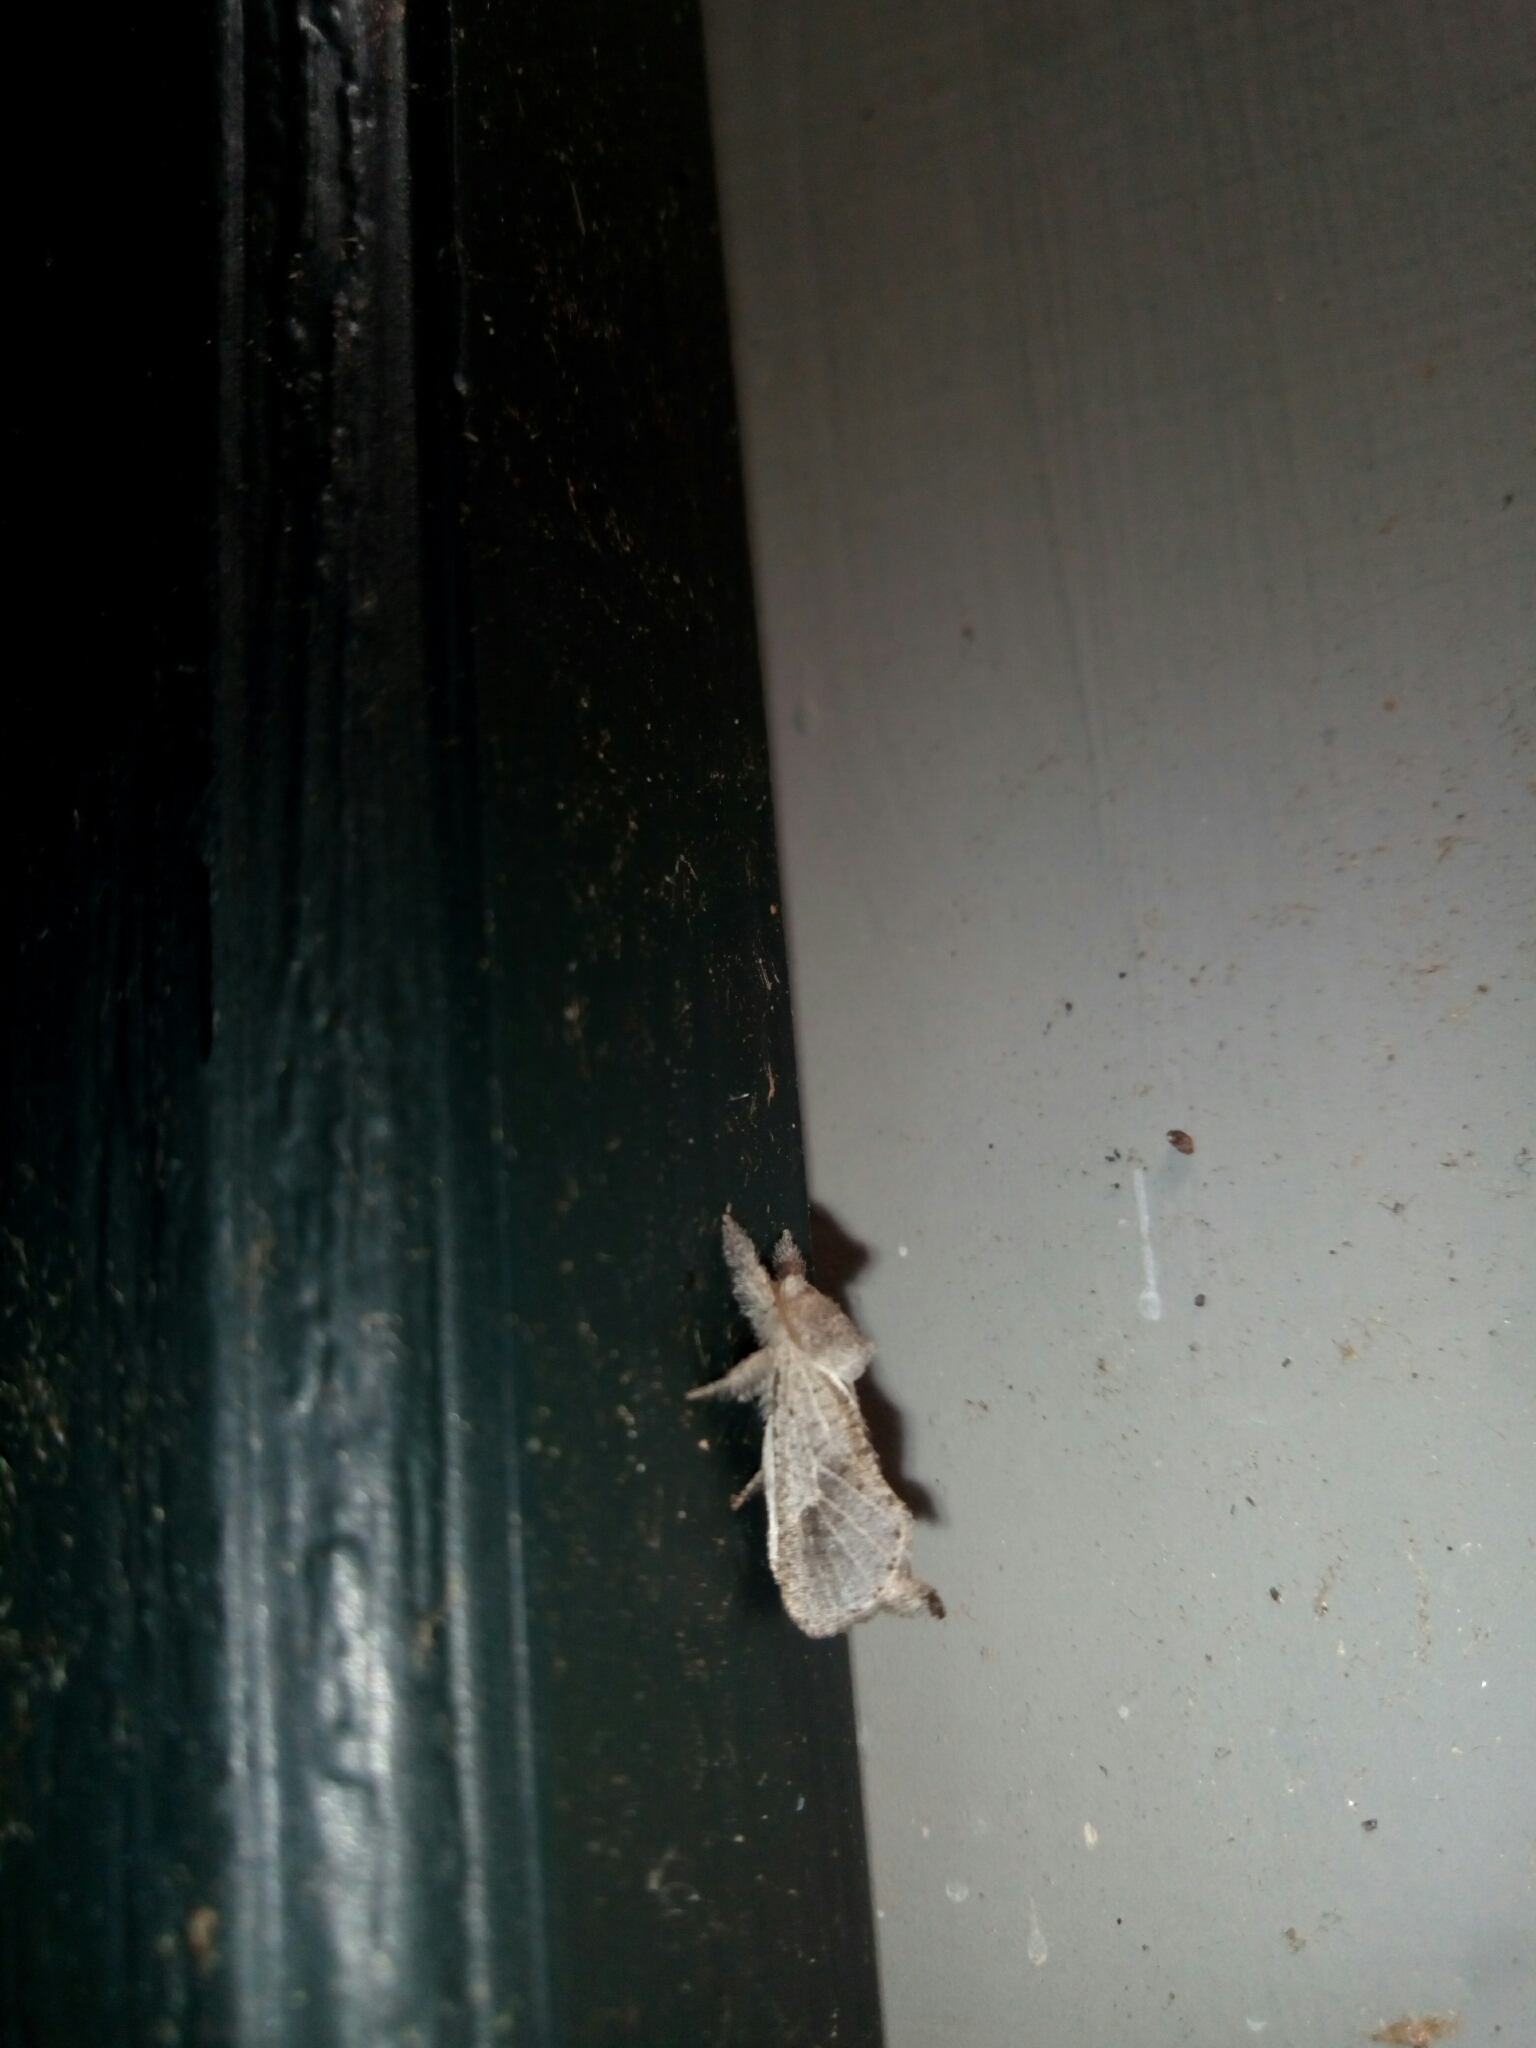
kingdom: Animalia
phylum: Arthropoda
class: Insecta
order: Lepidoptera
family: Cossidae
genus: Givira
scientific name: Givira anna
